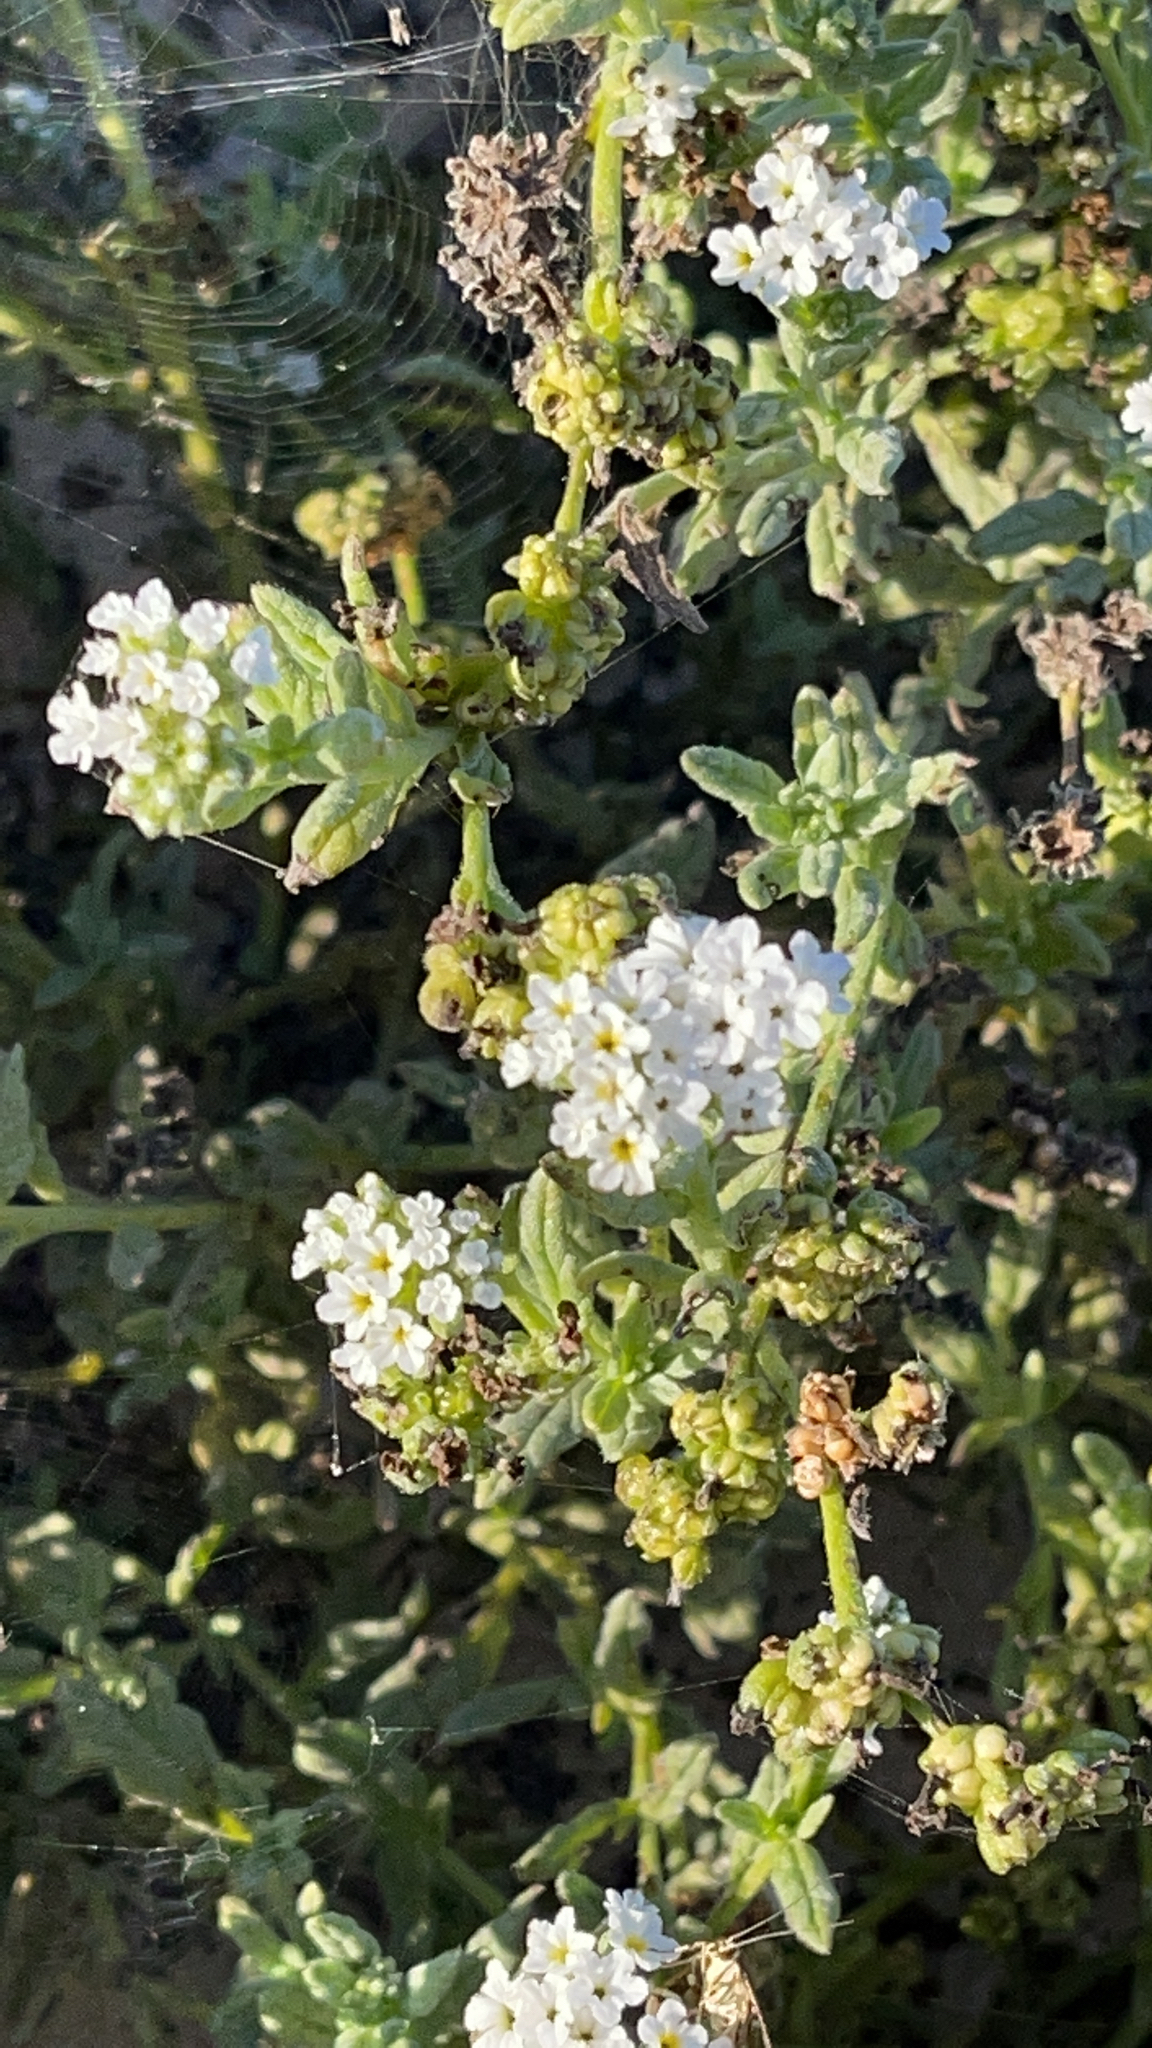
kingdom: Plantae
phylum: Tracheophyta
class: Magnoliopsida
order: Boraginales
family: Heliotropiaceae
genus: Heliotropium
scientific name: Heliotropium ramosissimum
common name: Wavy heliotrope
